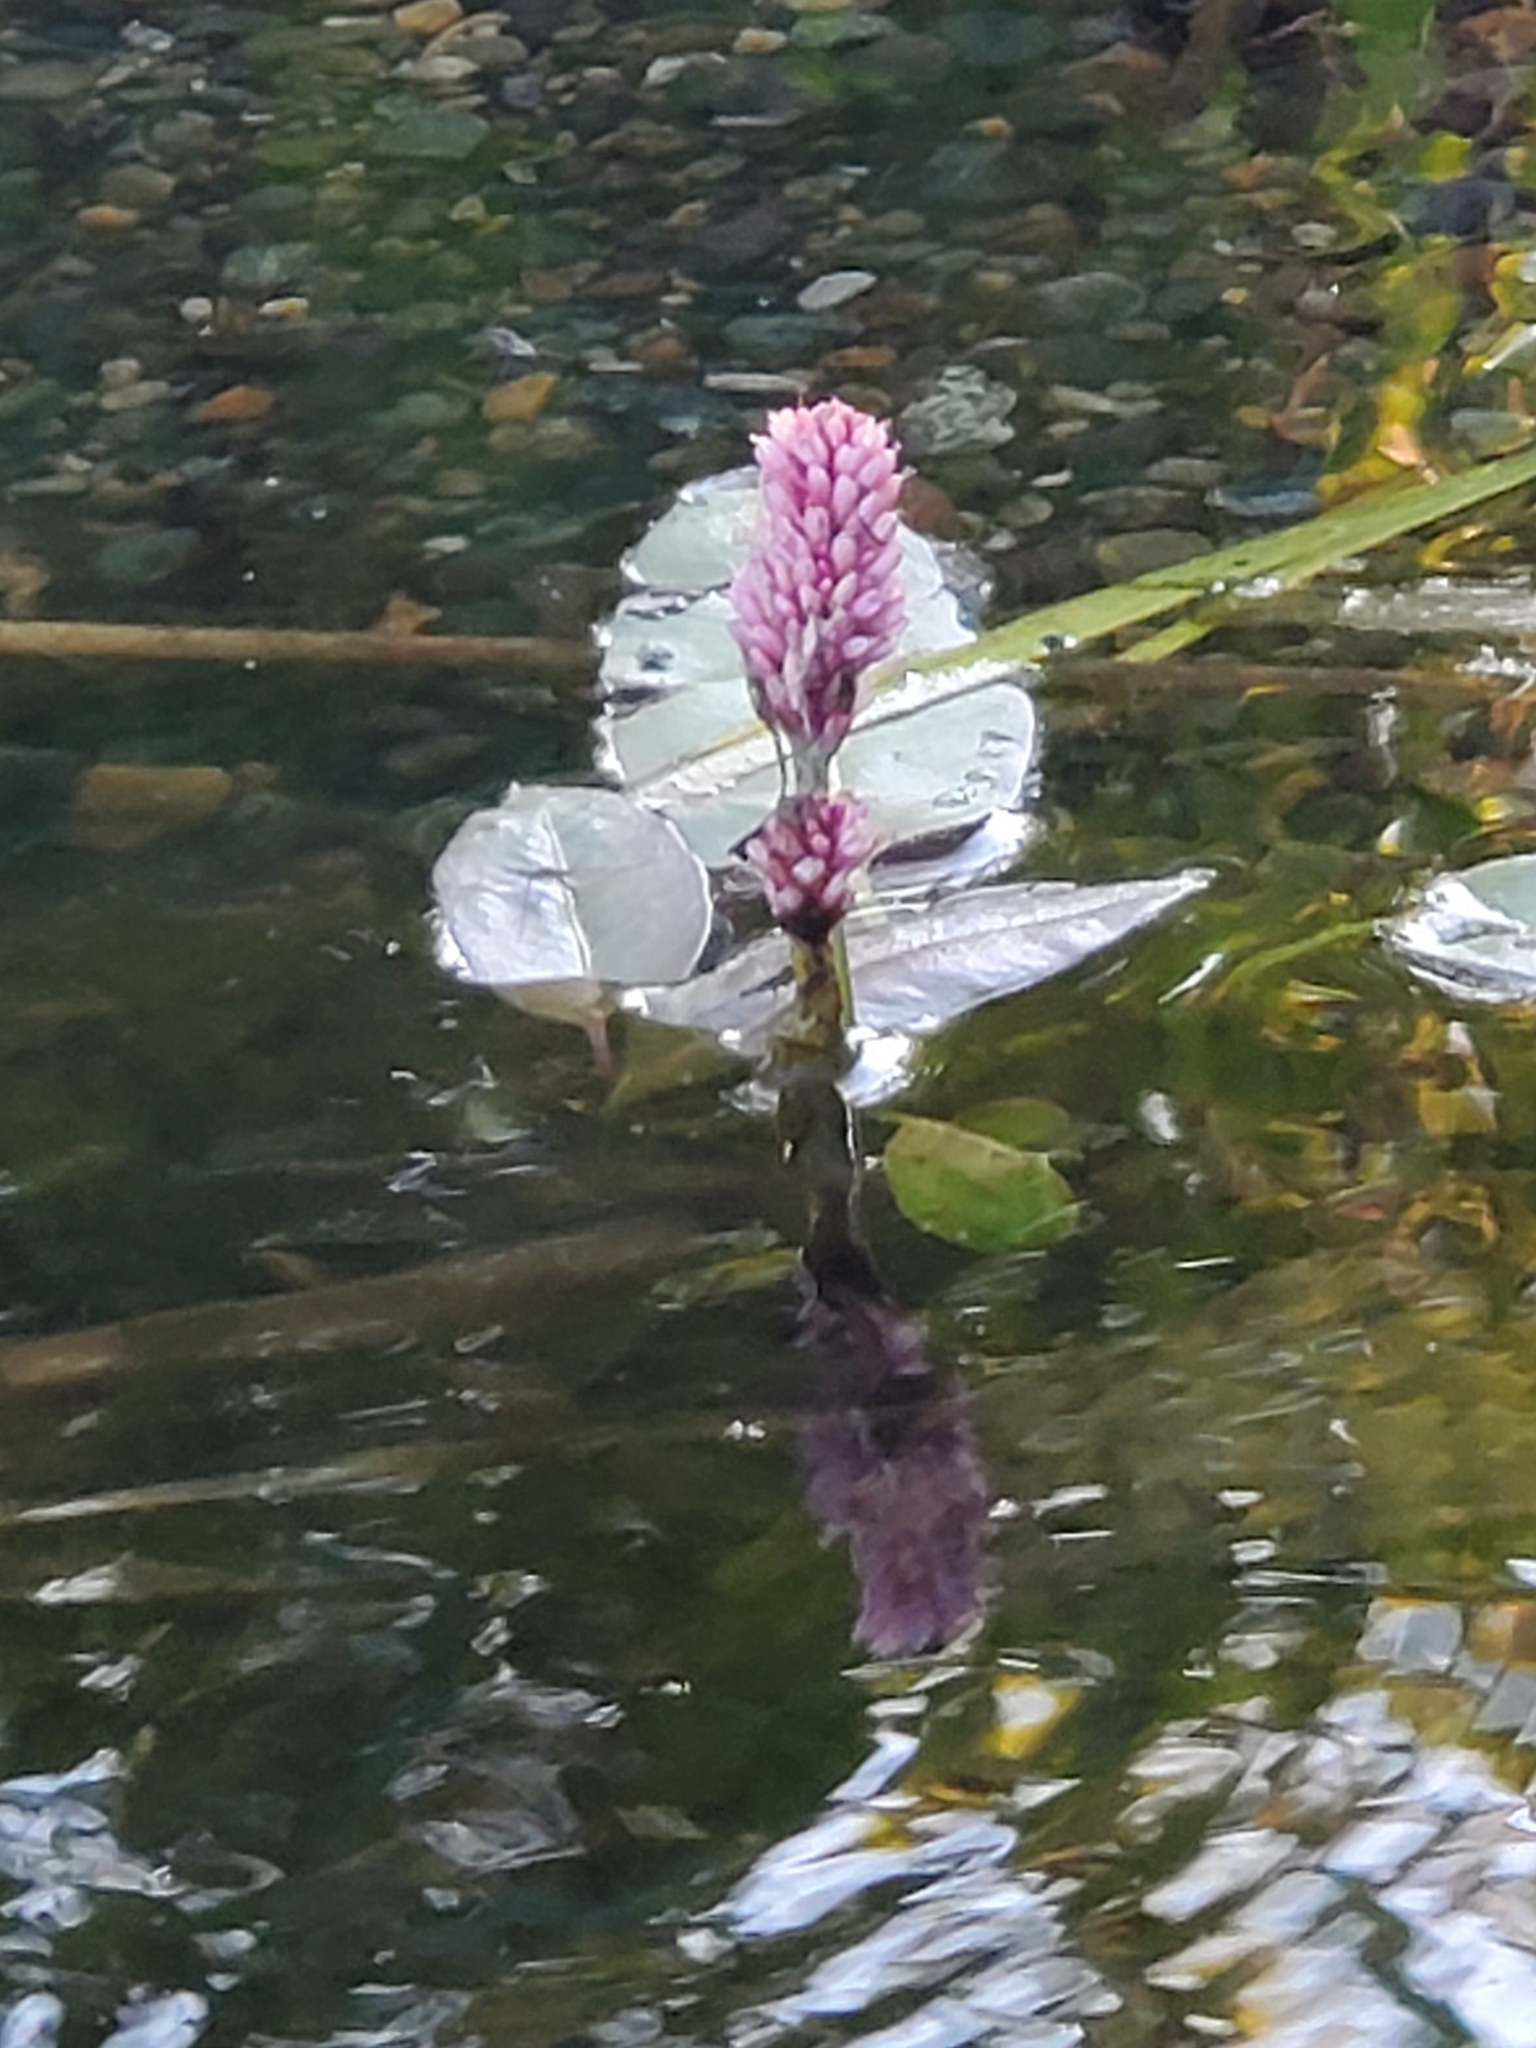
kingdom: Plantae
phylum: Tracheophyta
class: Magnoliopsida
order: Caryophyllales
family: Polygonaceae
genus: Persicaria
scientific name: Persicaria amphibia
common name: Amphibious bistort
